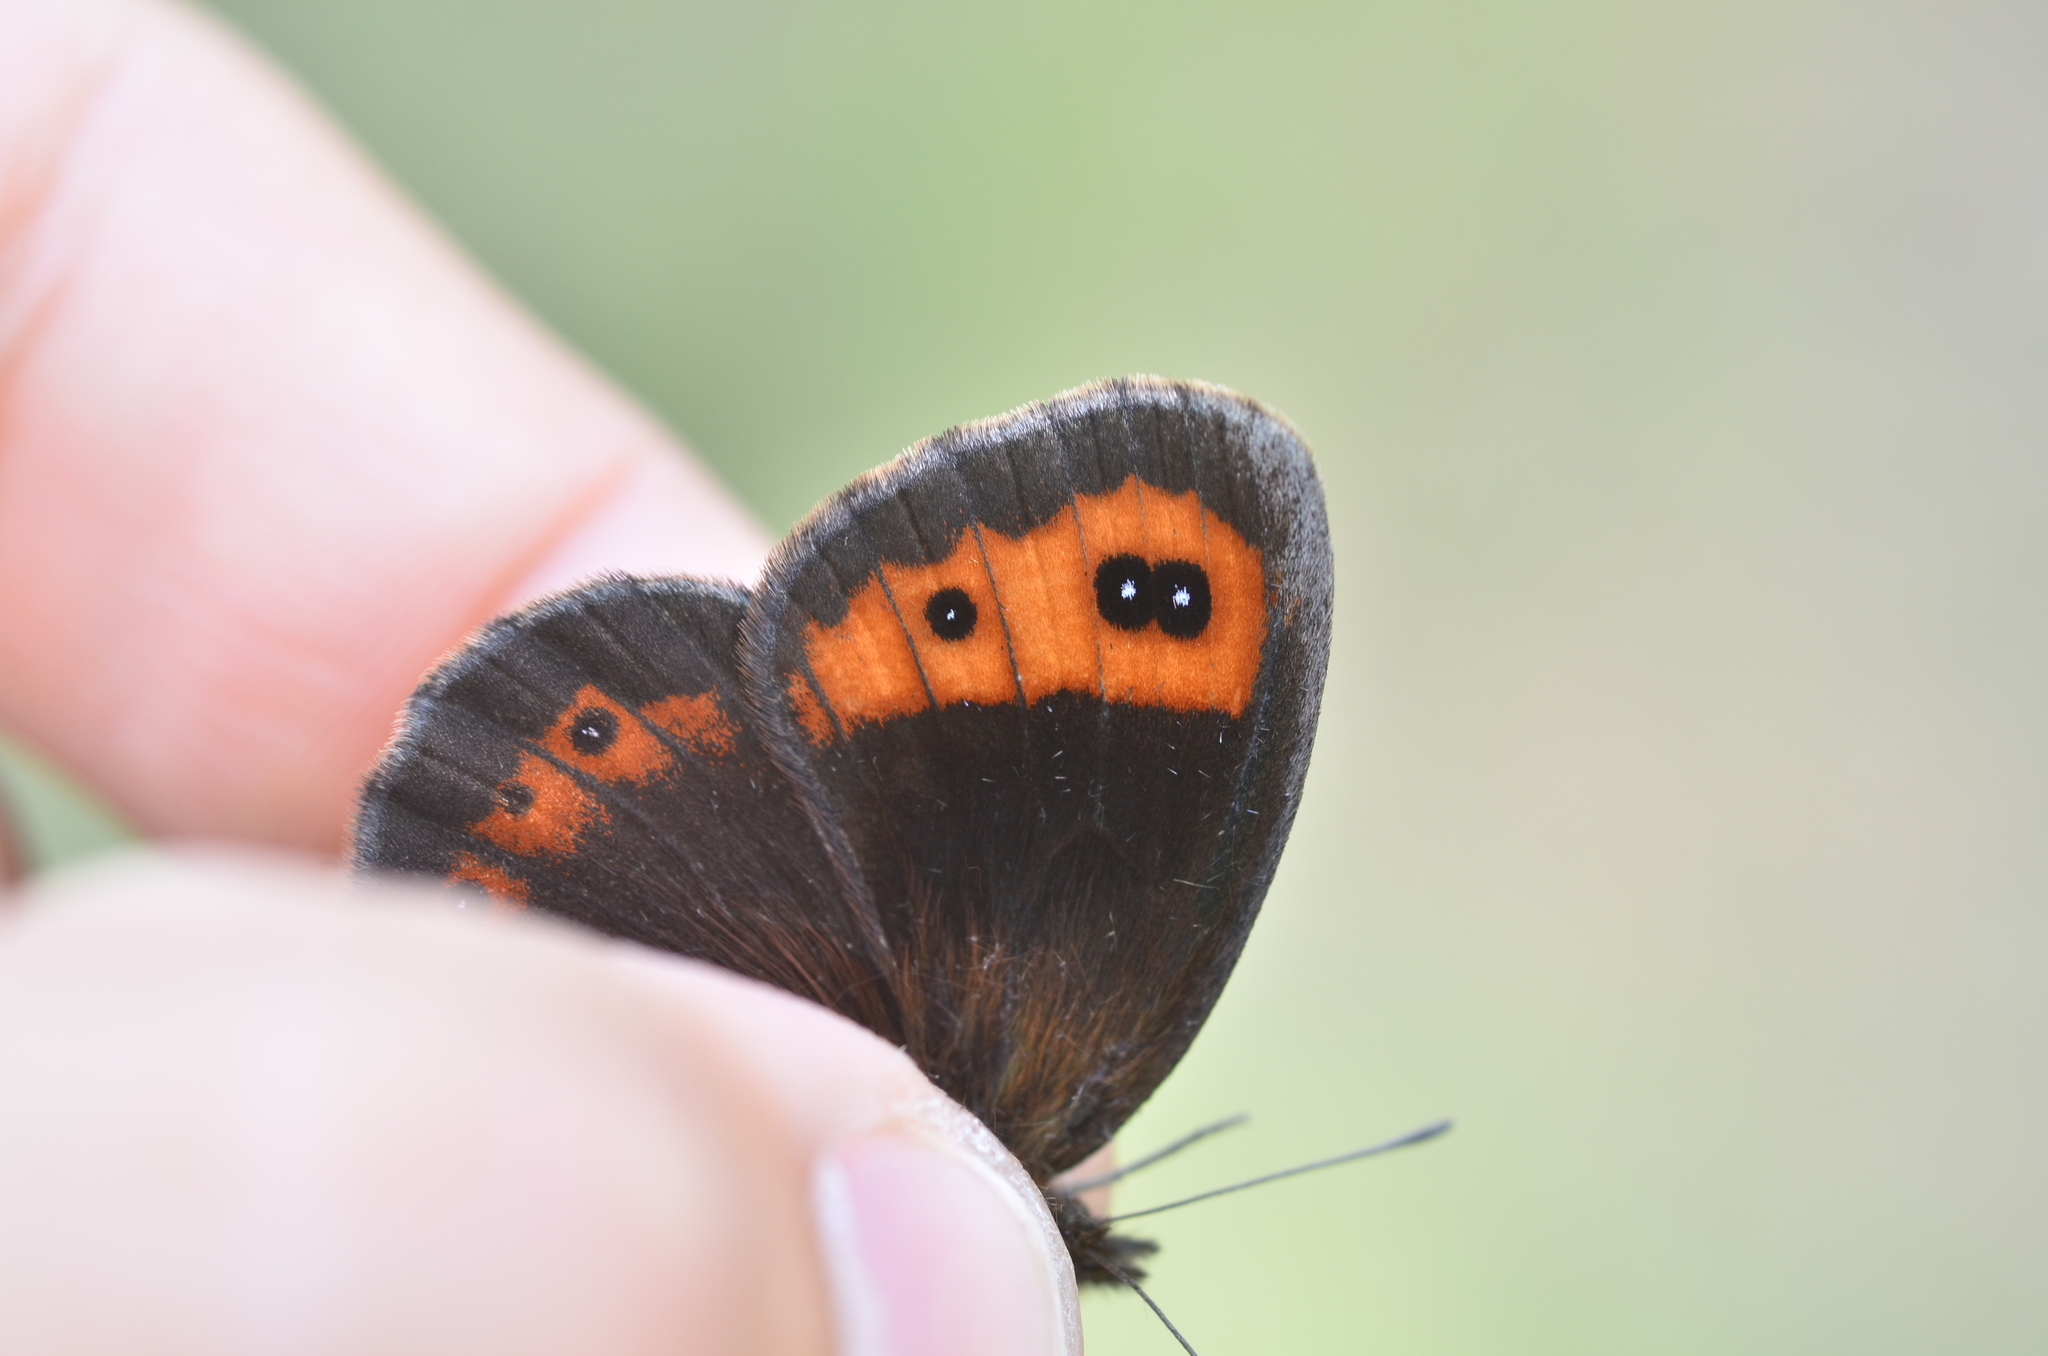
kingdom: Animalia
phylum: Arthropoda
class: Insecta
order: Lepidoptera
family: Nymphalidae
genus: Erebia
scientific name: Erebia neoridas
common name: Autumn ringlet
